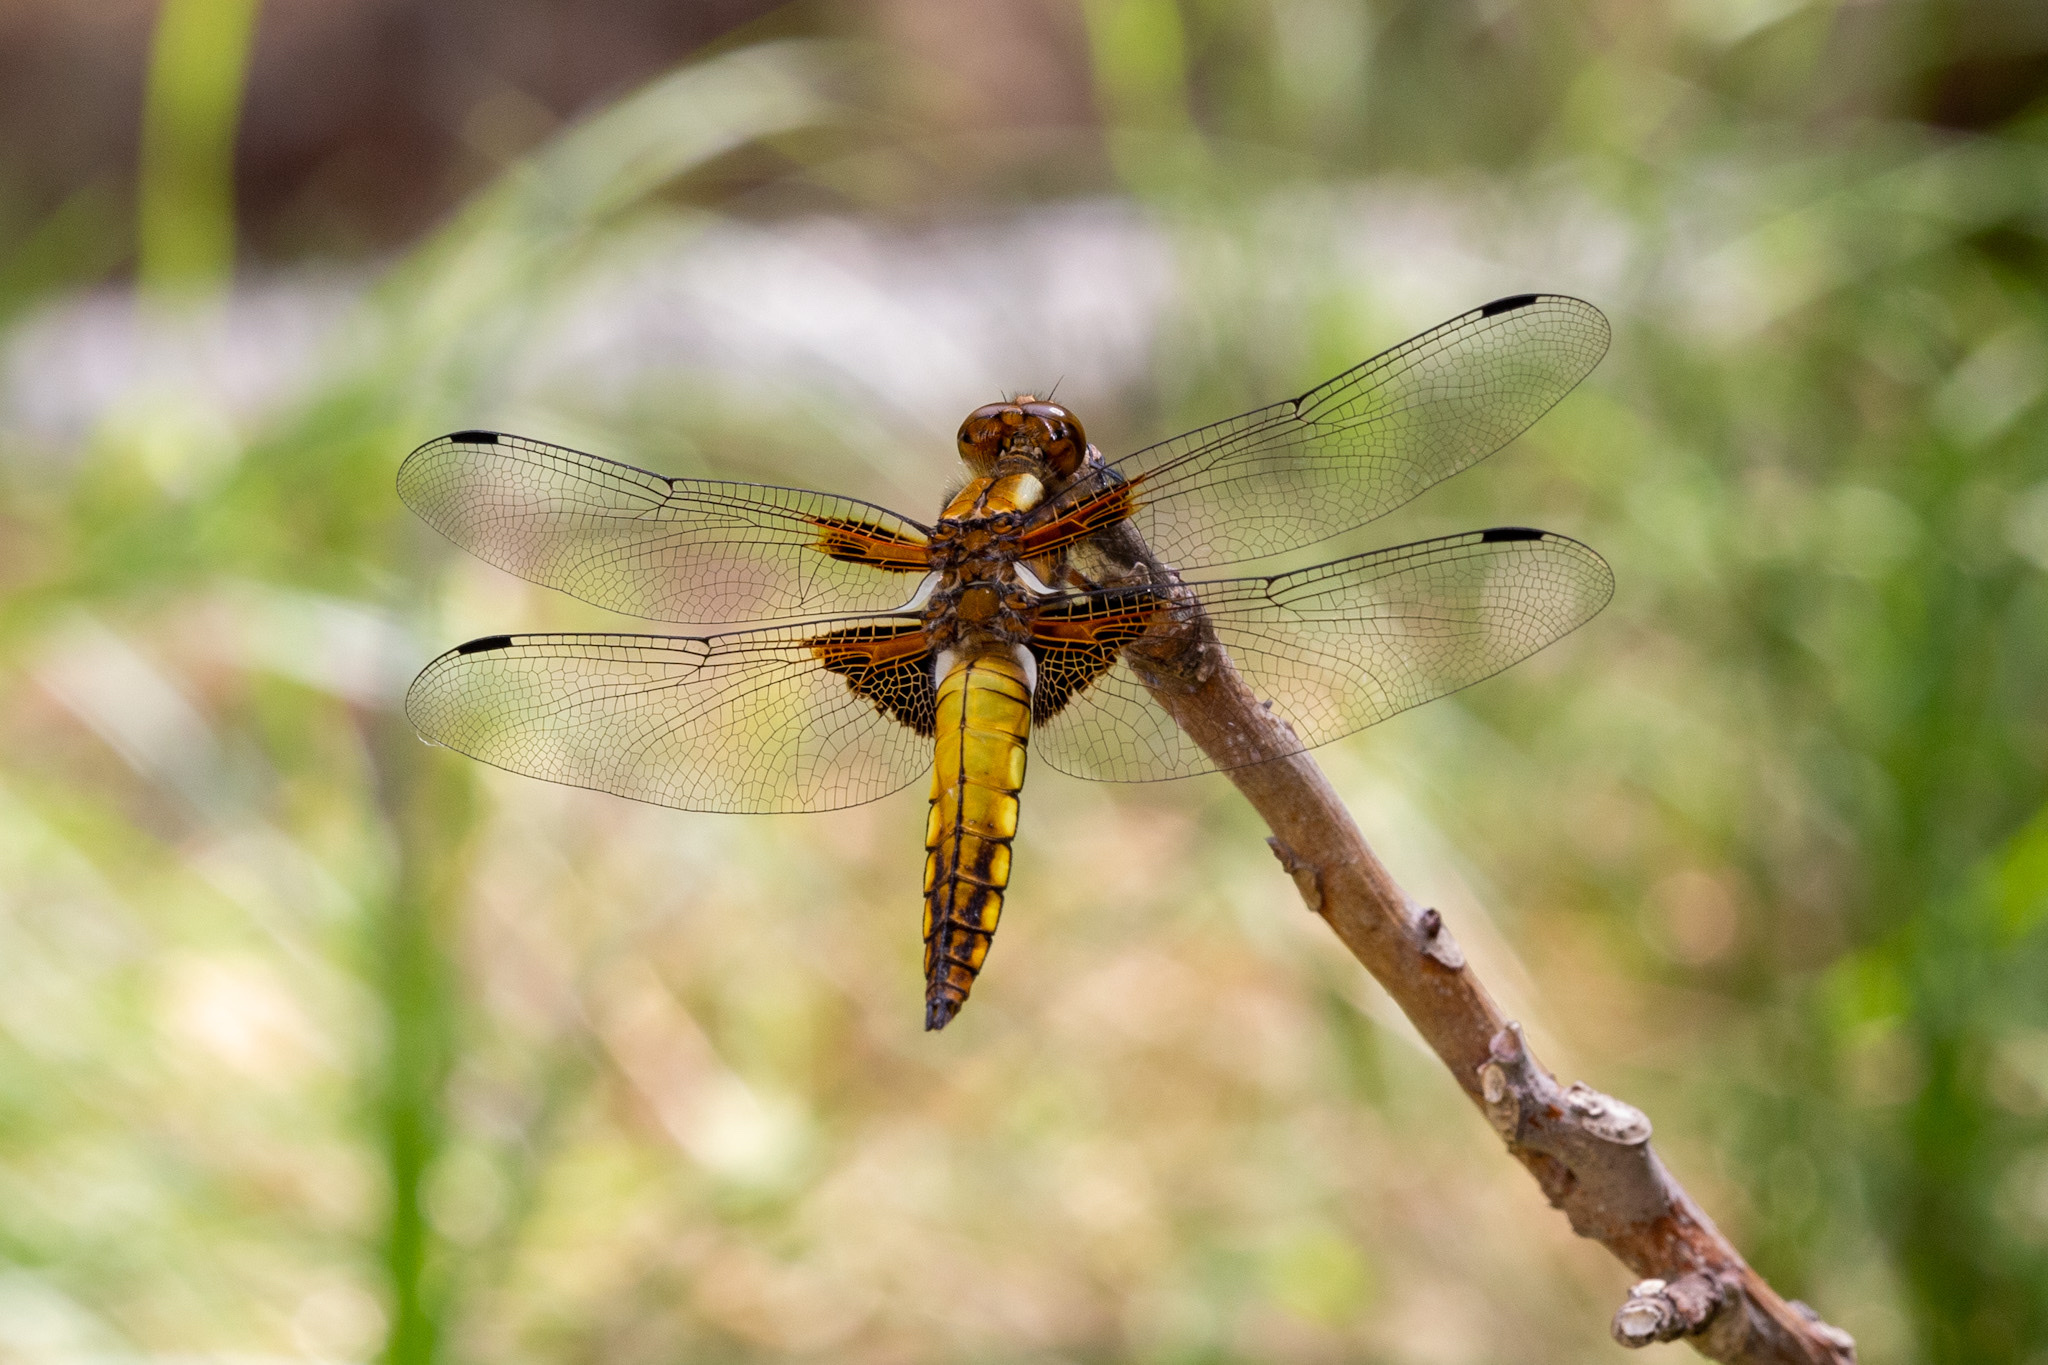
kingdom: Animalia
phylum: Arthropoda
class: Insecta
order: Odonata
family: Libellulidae
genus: Libellula
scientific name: Libellula depressa
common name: Broad-bodied chaser
